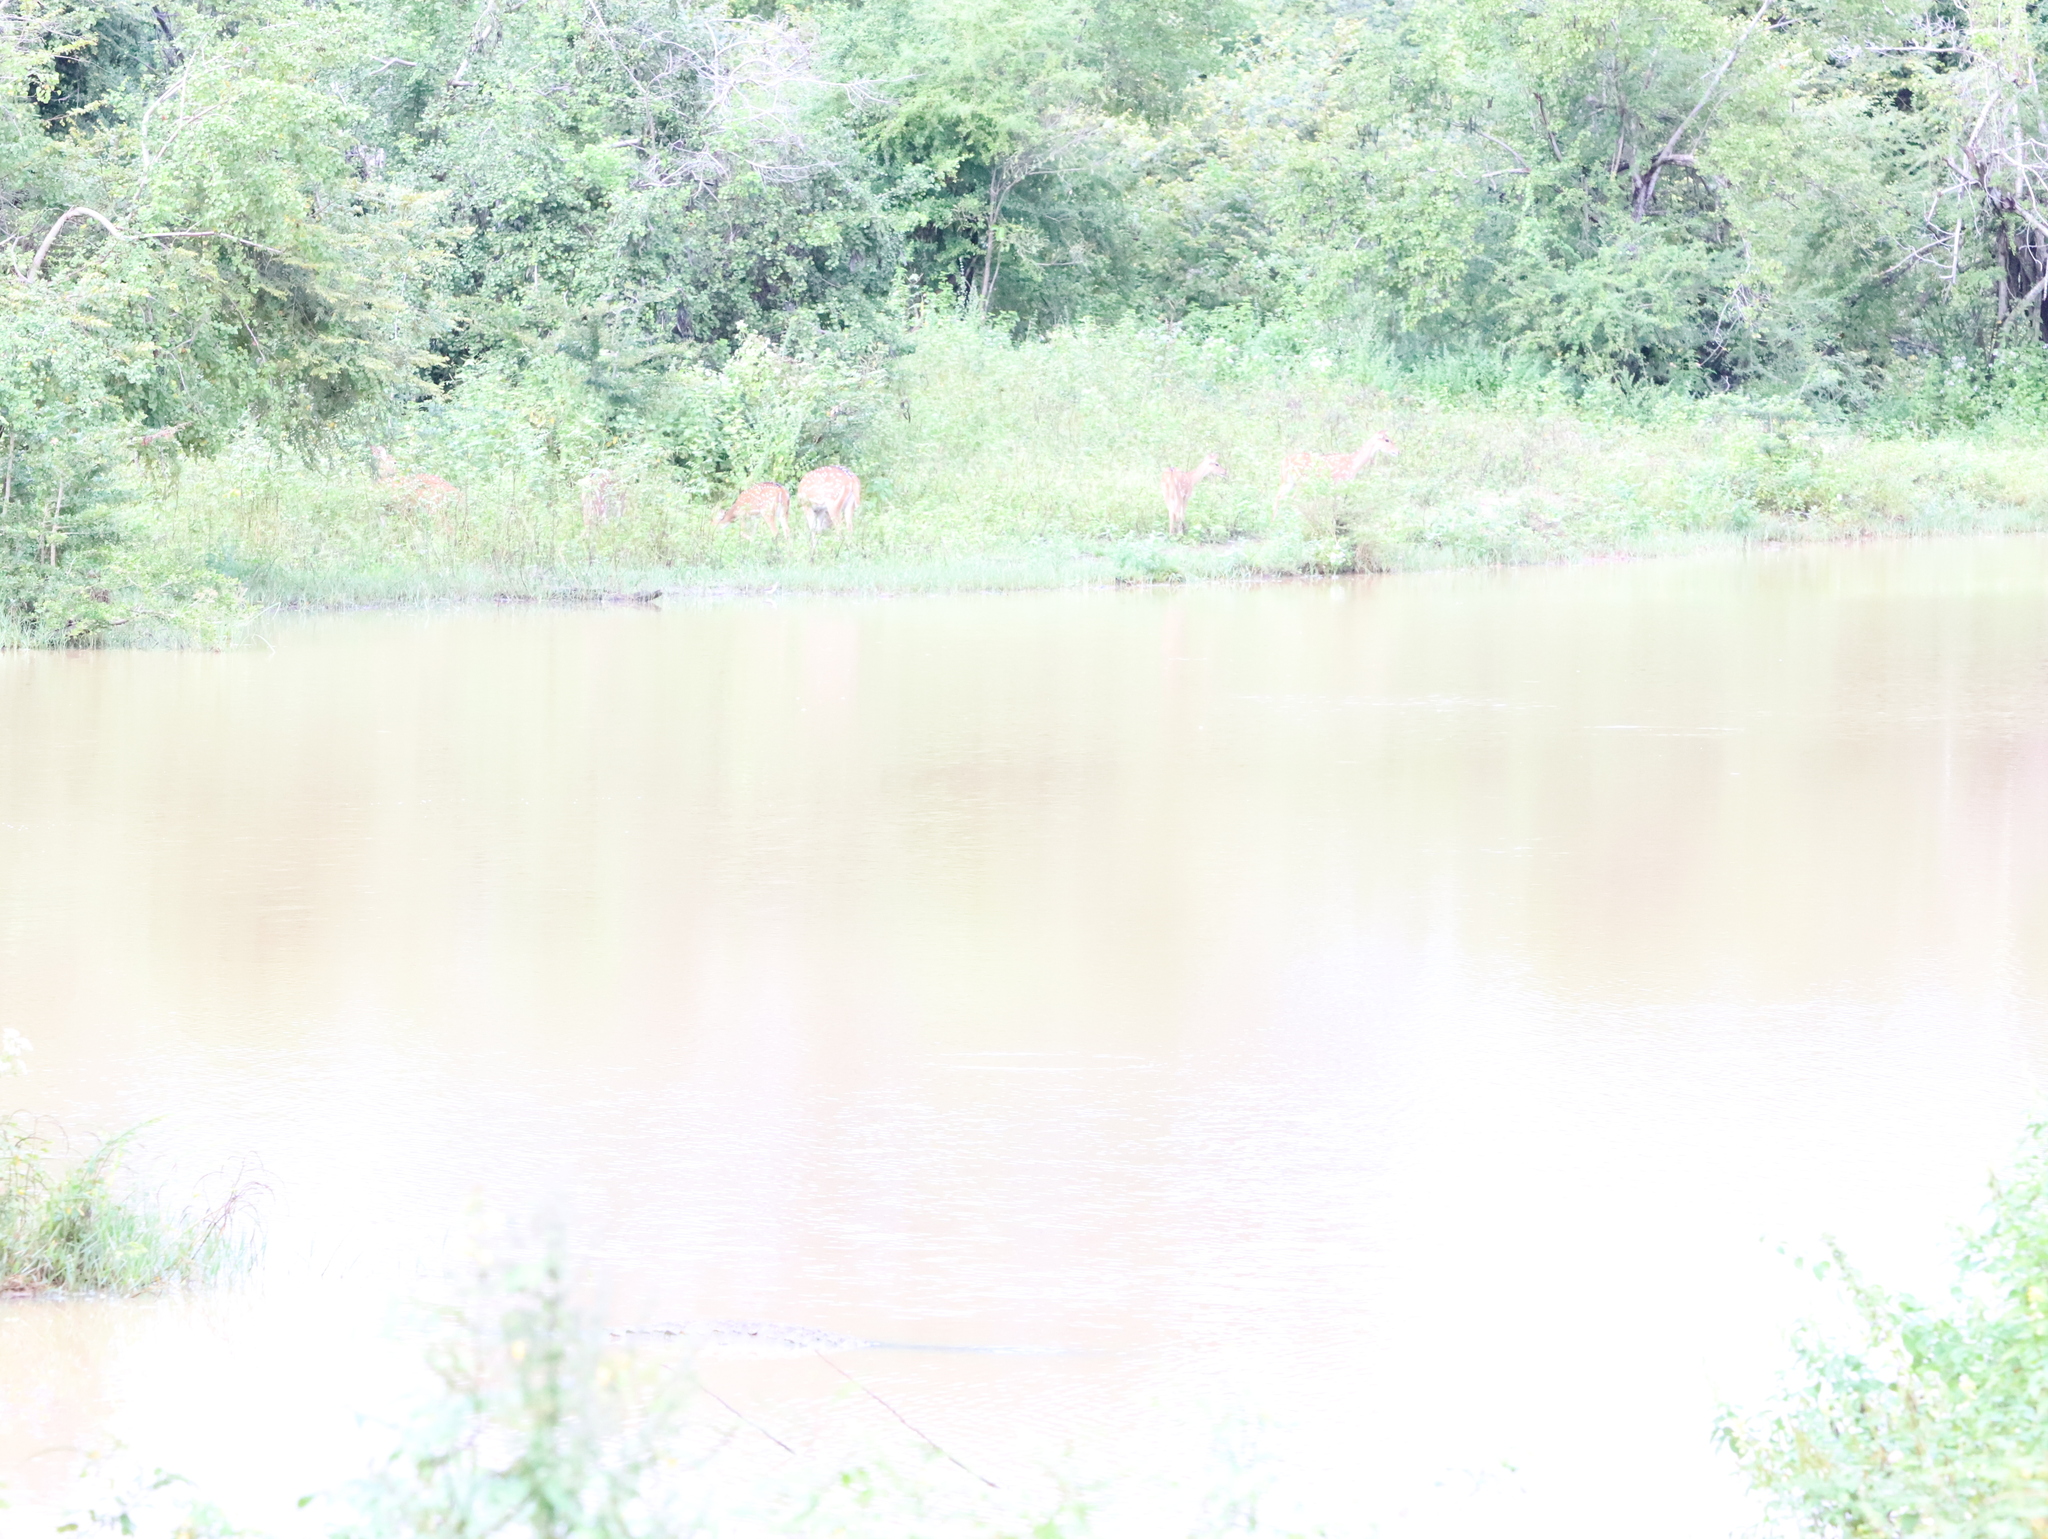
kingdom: Animalia
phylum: Chordata
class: Mammalia
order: Artiodactyla
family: Cervidae
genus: Axis
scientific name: Axis axis
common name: Chital
